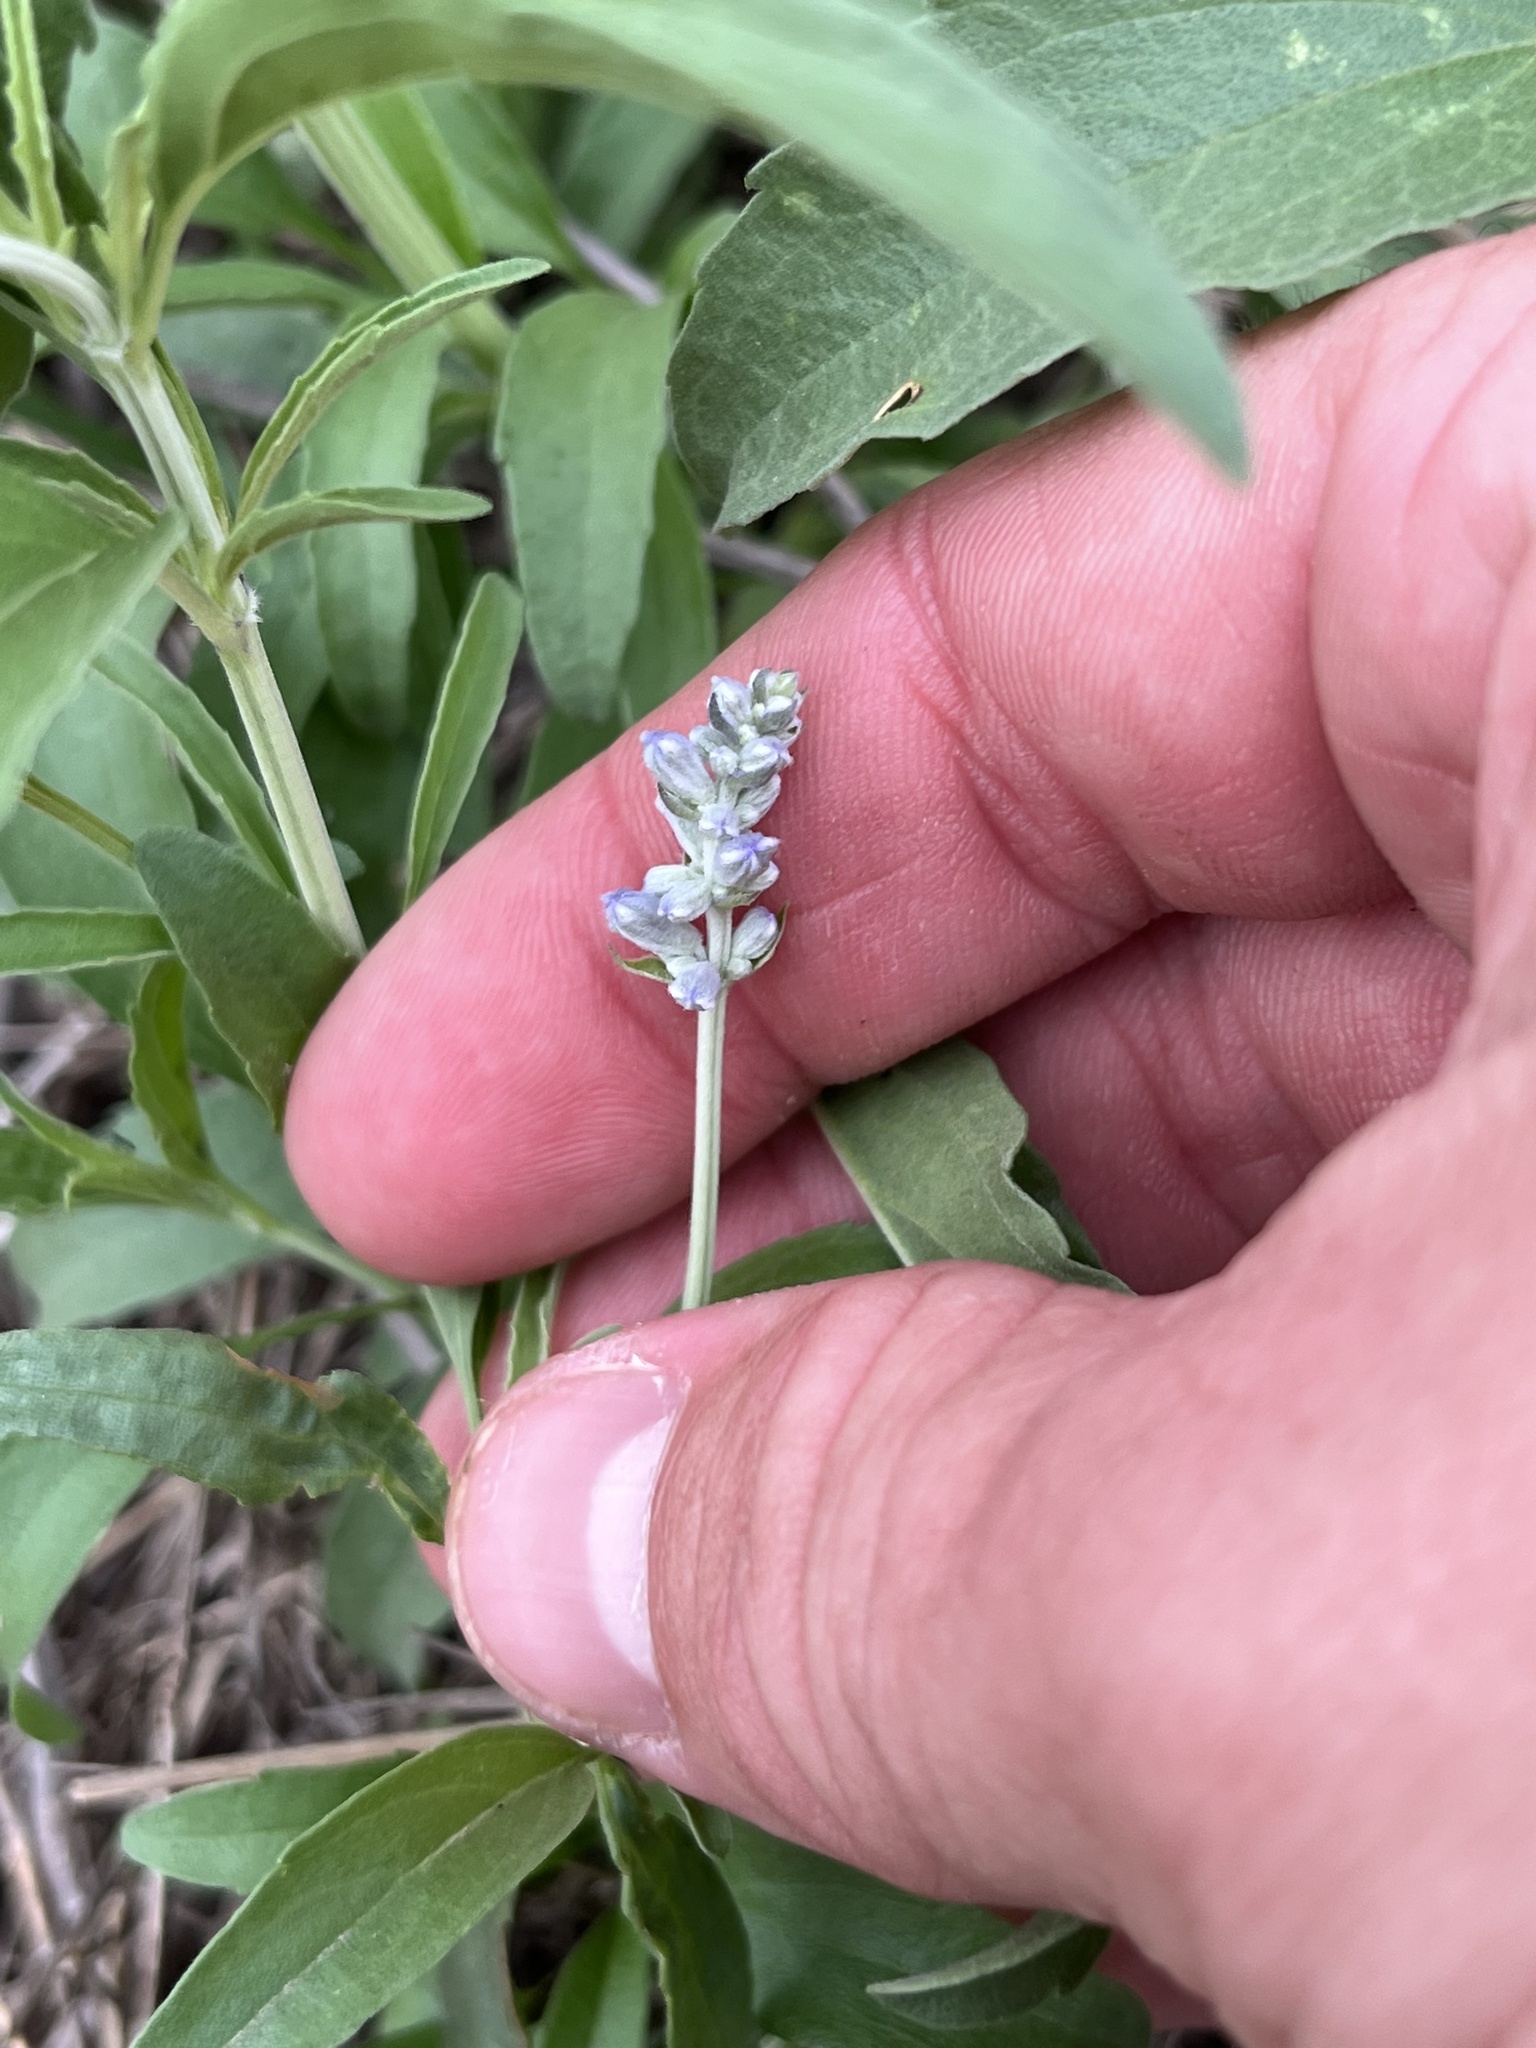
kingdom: Plantae
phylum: Tracheophyta
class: Magnoliopsida
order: Lamiales
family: Lamiaceae
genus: Salvia
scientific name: Salvia farinacea
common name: Mealy sage
